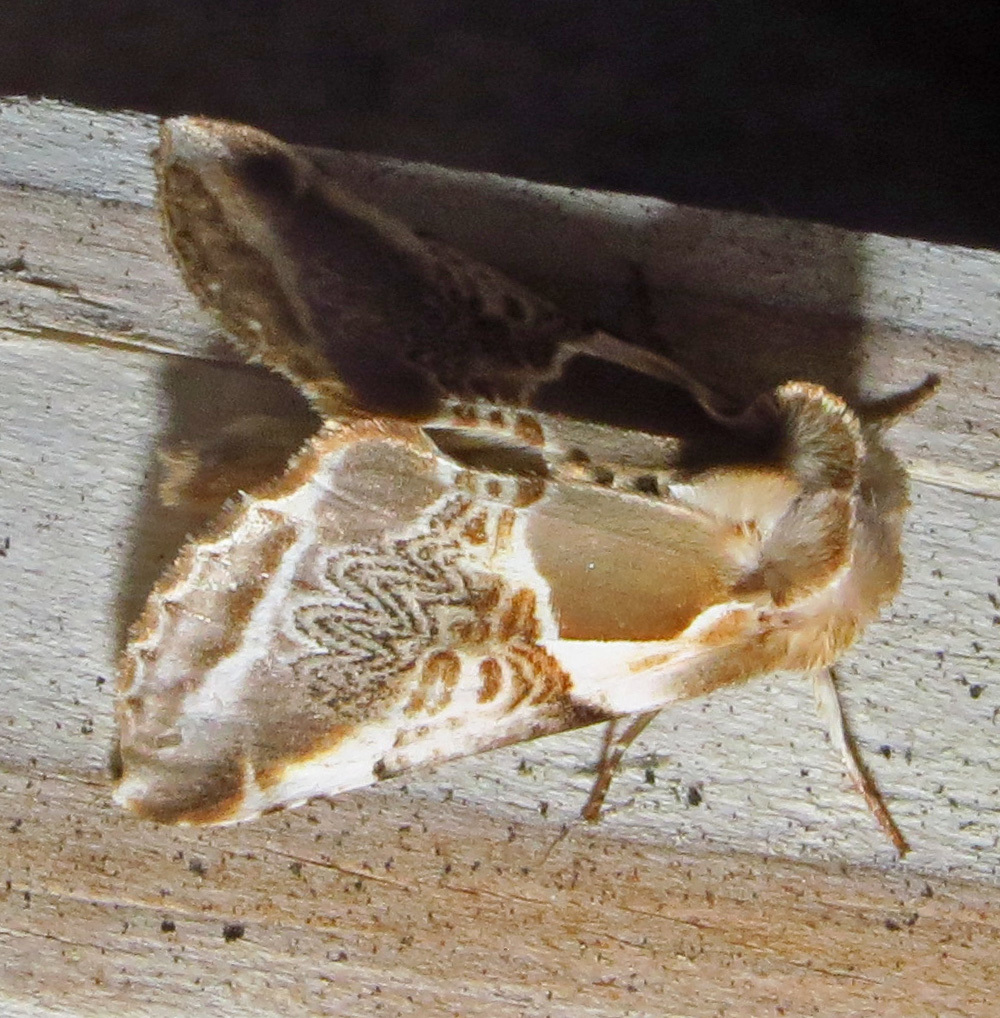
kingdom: Animalia
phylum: Arthropoda
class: Insecta
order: Lepidoptera
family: Drepanidae
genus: Habrosyne
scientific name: Habrosyne scripta
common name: Lettered habrosyne moth
